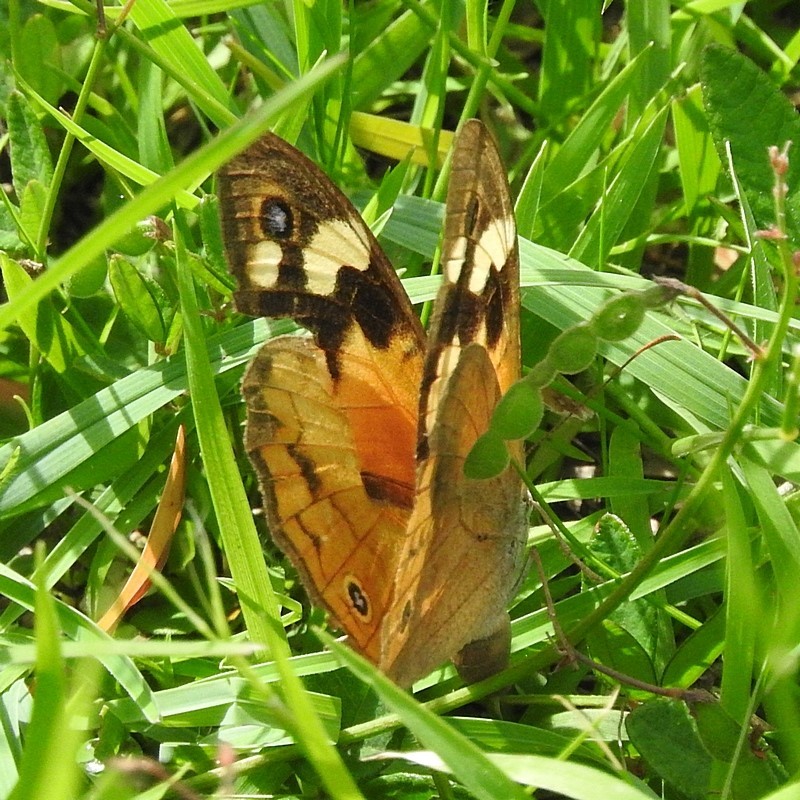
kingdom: Animalia
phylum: Arthropoda
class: Insecta
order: Lepidoptera
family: Nymphalidae
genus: Heteronympha
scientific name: Heteronympha merope
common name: Common brown
